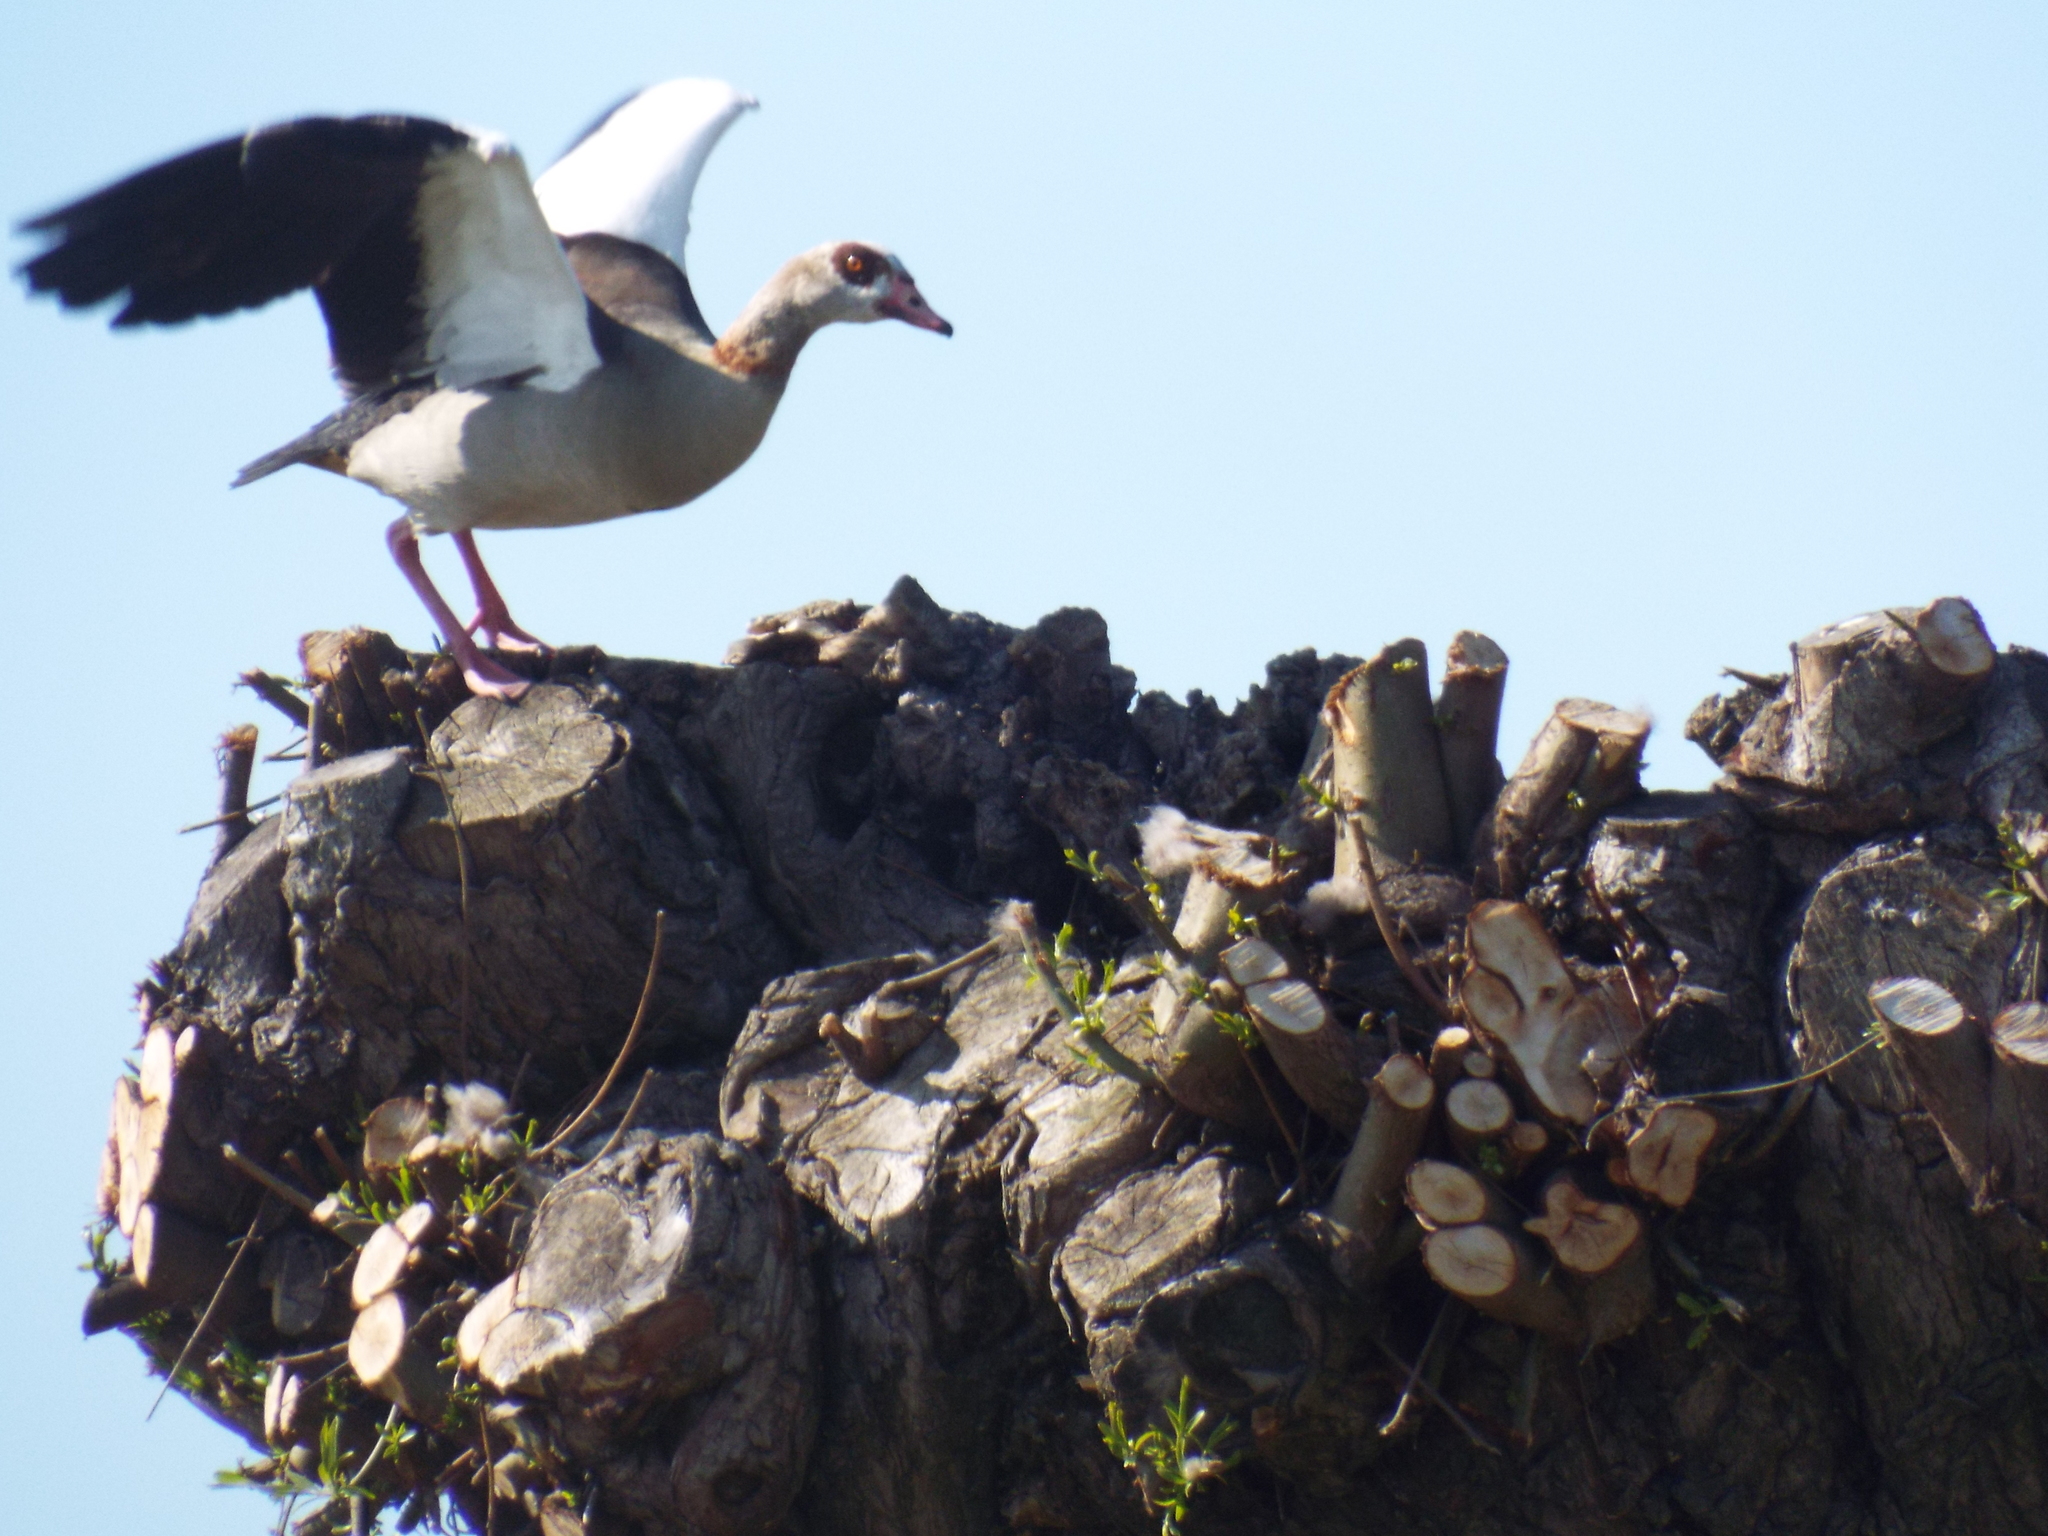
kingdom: Animalia
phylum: Chordata
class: Aves
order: Anseriformes
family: Anatidae
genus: Alopochen
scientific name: Alopochen aegyptiaca
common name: Egyptian goose
